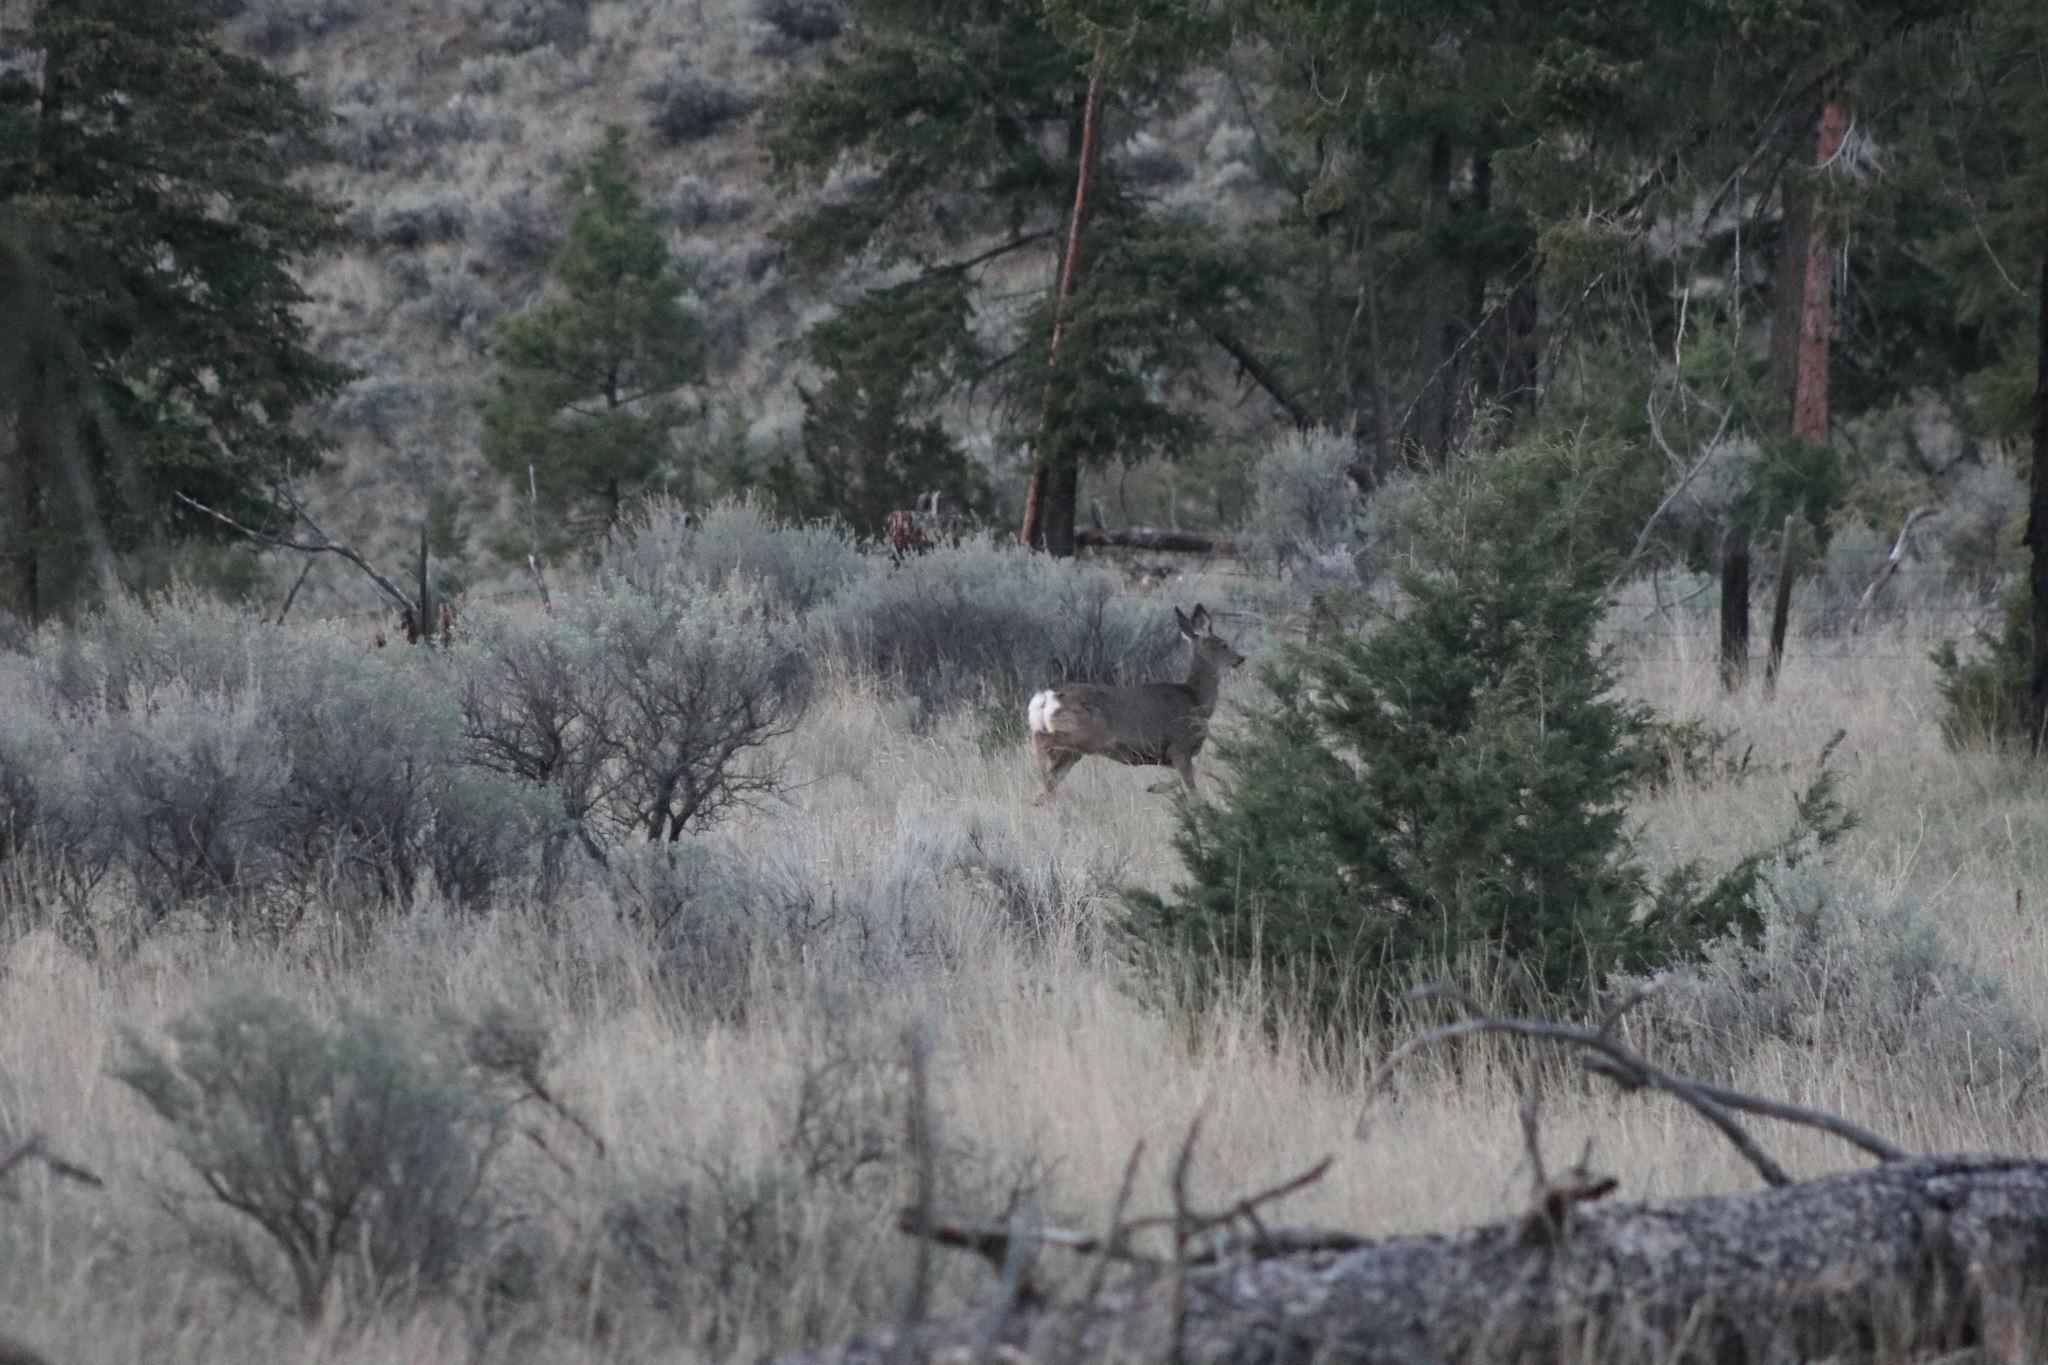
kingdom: Animalia
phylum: Chordata
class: Mammalia
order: Artiodactyla
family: Cervidae
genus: Odocoileus
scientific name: Odocoileus hemionus
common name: Mule deer
